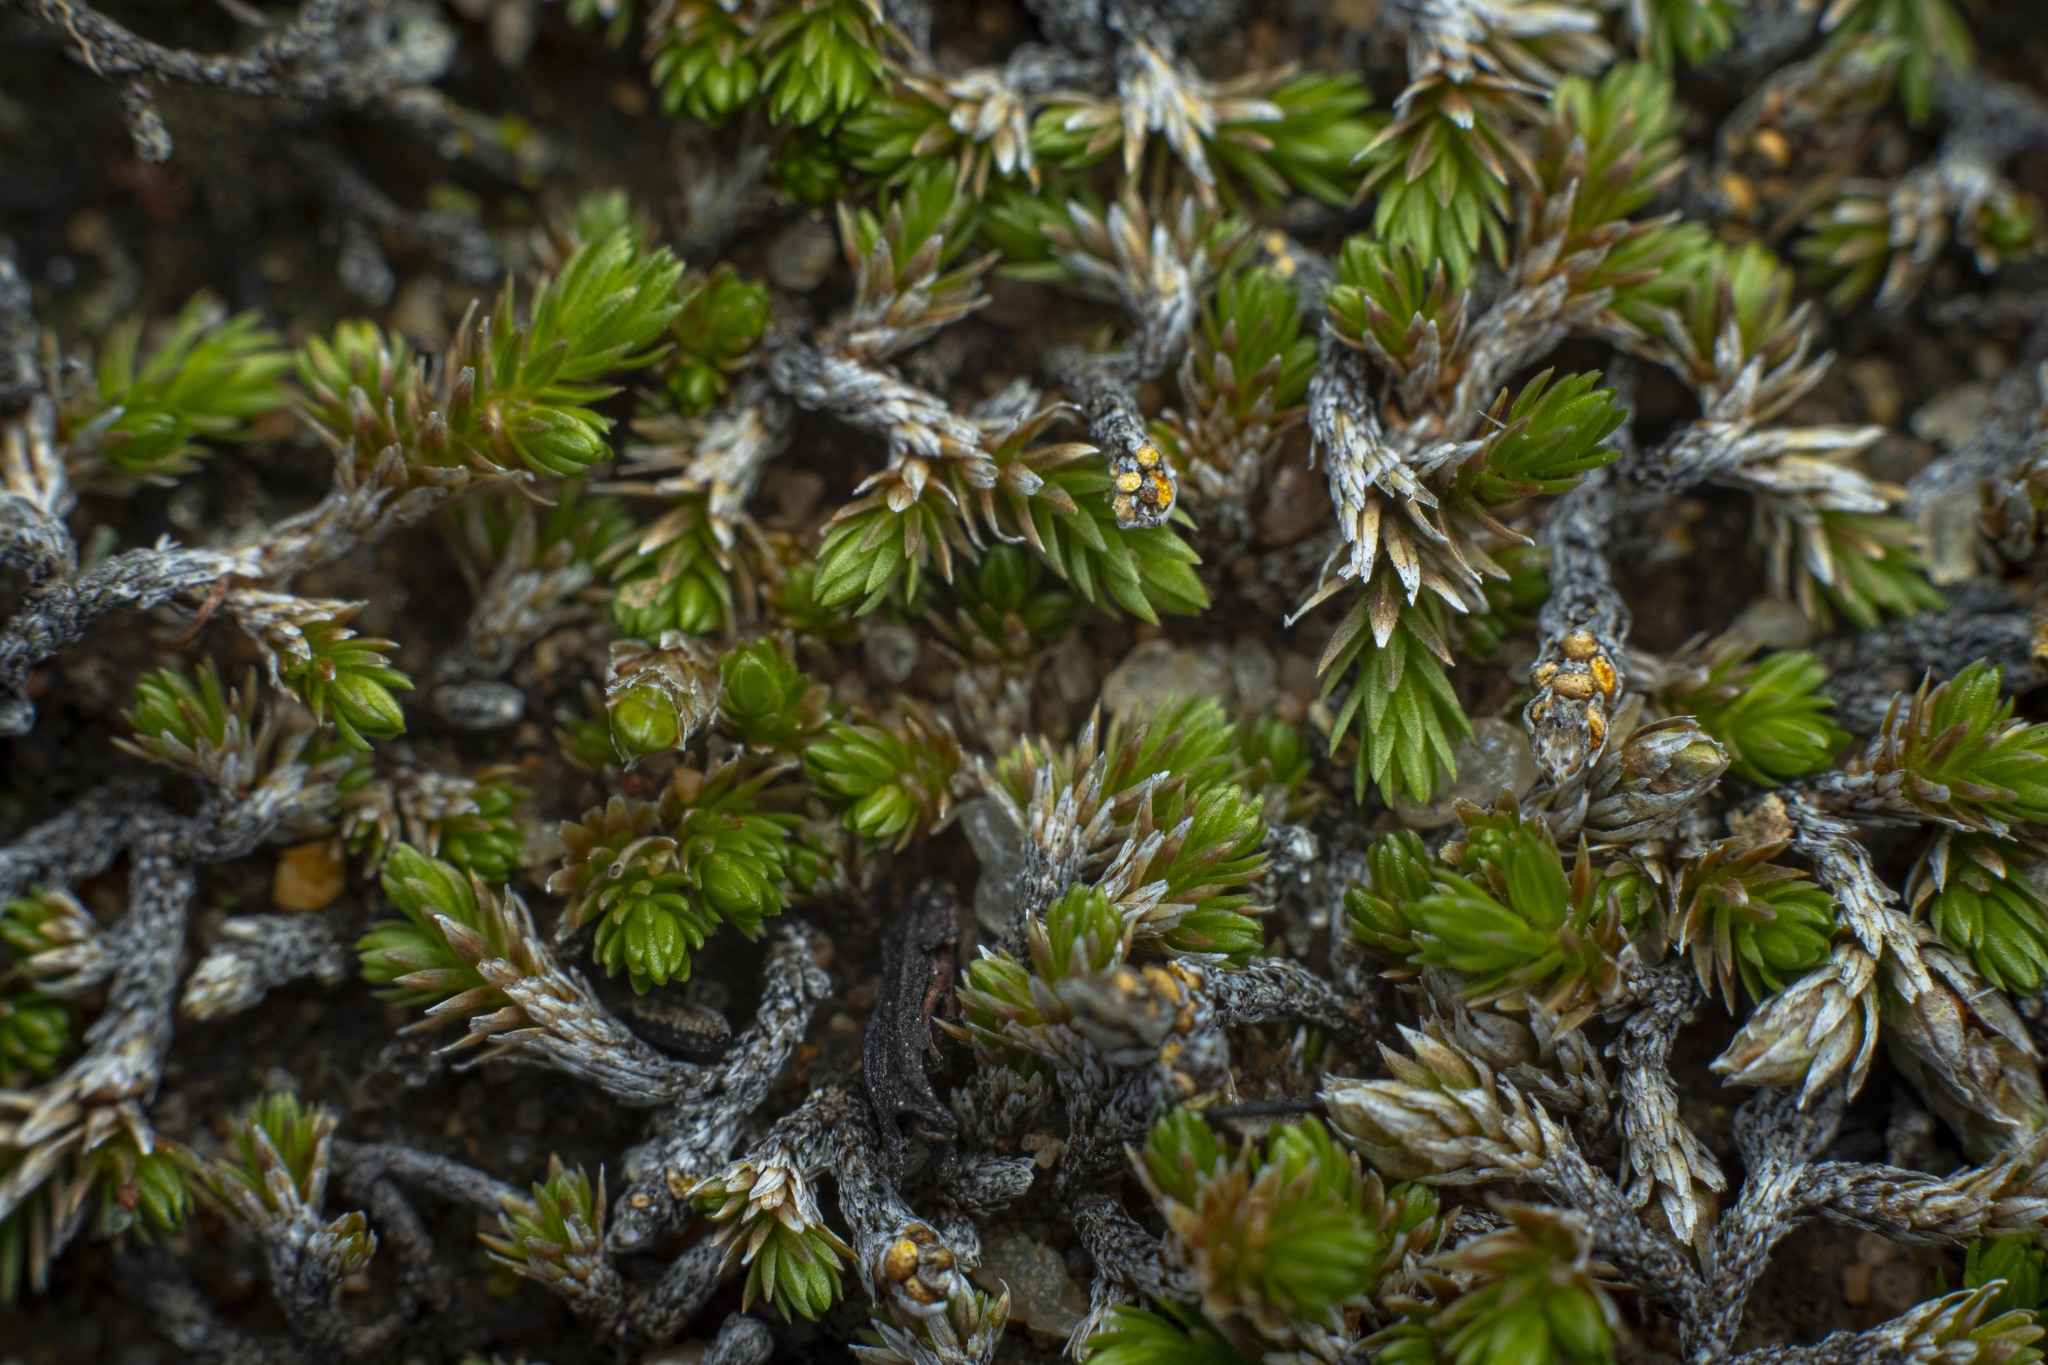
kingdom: Plantae
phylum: Tracheophyta
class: Lycopodiopsida
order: Selaginellales
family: Selaginellaceae
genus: Selaginella
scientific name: Selaginella cinerascens
